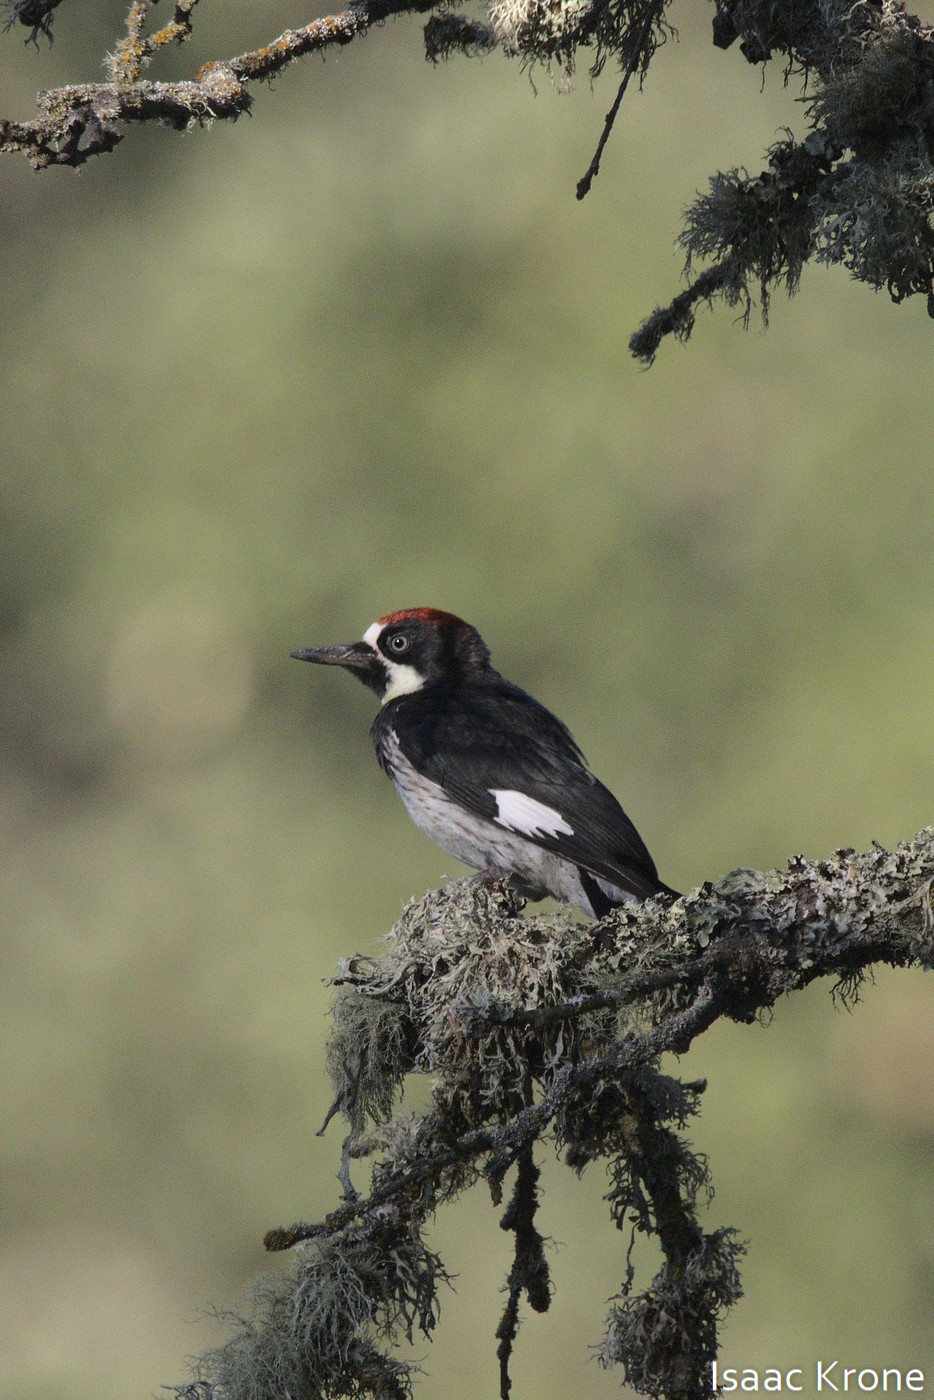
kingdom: Animalia
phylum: Chordata
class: Aves
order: Piciformes
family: Picidae
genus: Melanerpes
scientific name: Melanerpes formicivorus
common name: Acorn woodpecker
